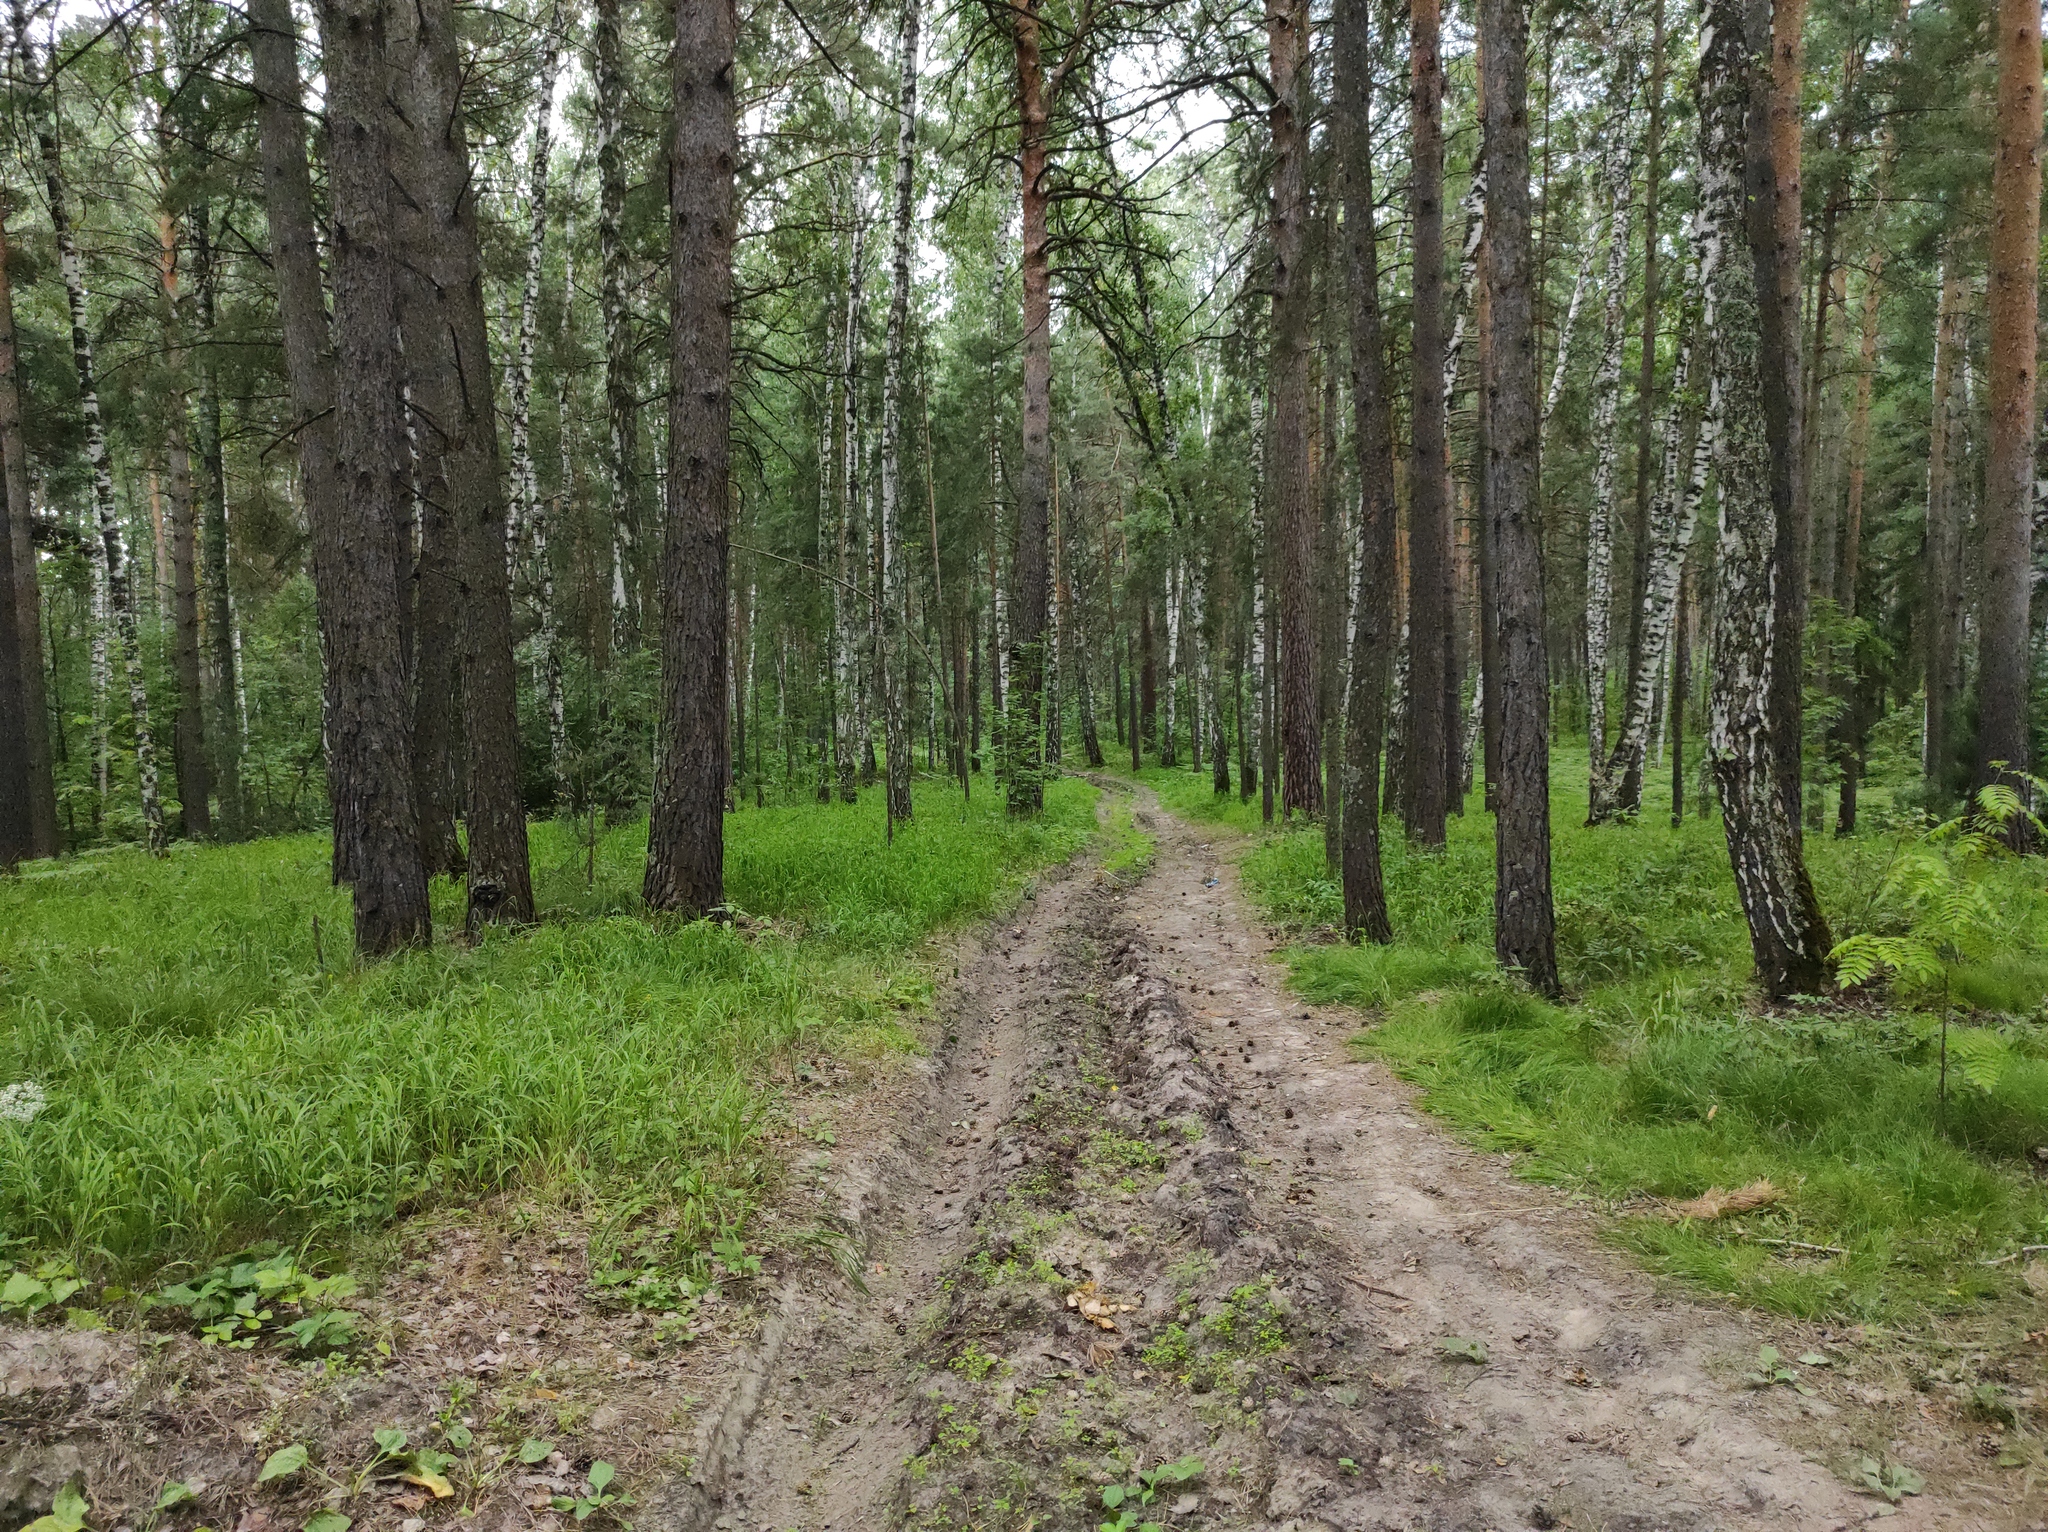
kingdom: Plantae
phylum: Tracheophyta
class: Pinopsida
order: Pinales
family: Pinaceae
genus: Pinus
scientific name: Pinus sylvestris
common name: Scots pine
